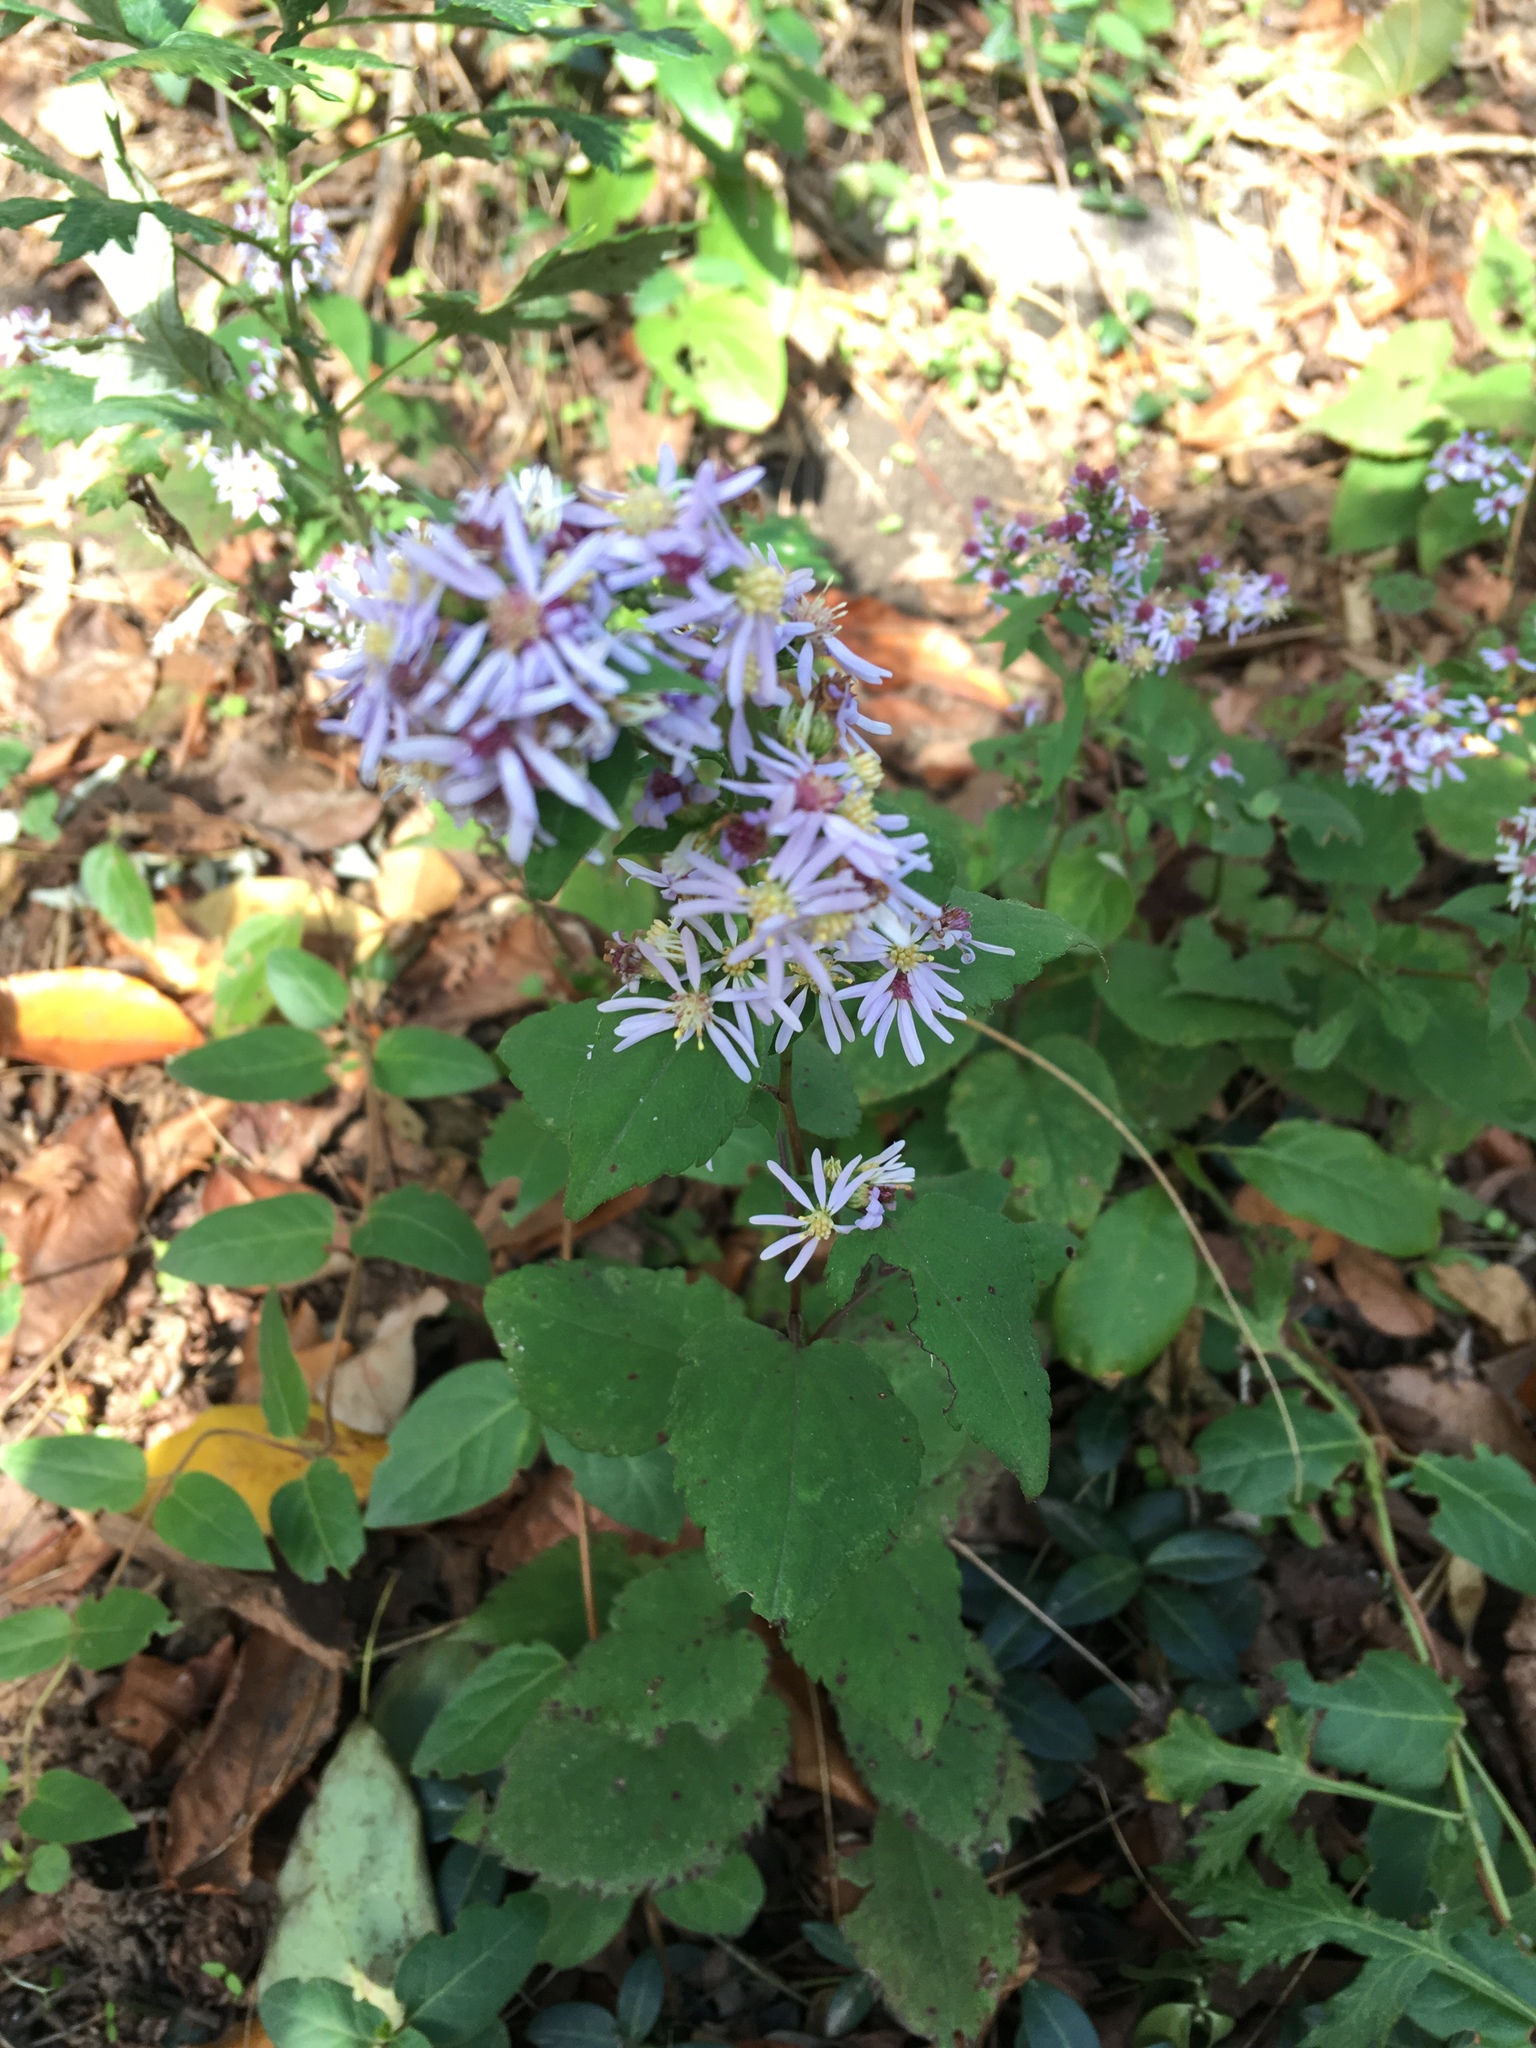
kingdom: Plantae
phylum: Tracheophyta
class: Magnoliopsida
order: Asterales
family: Asteraceae
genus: Symphyotrichum
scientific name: Symphyotrichum cordifolium
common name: Beeweed
